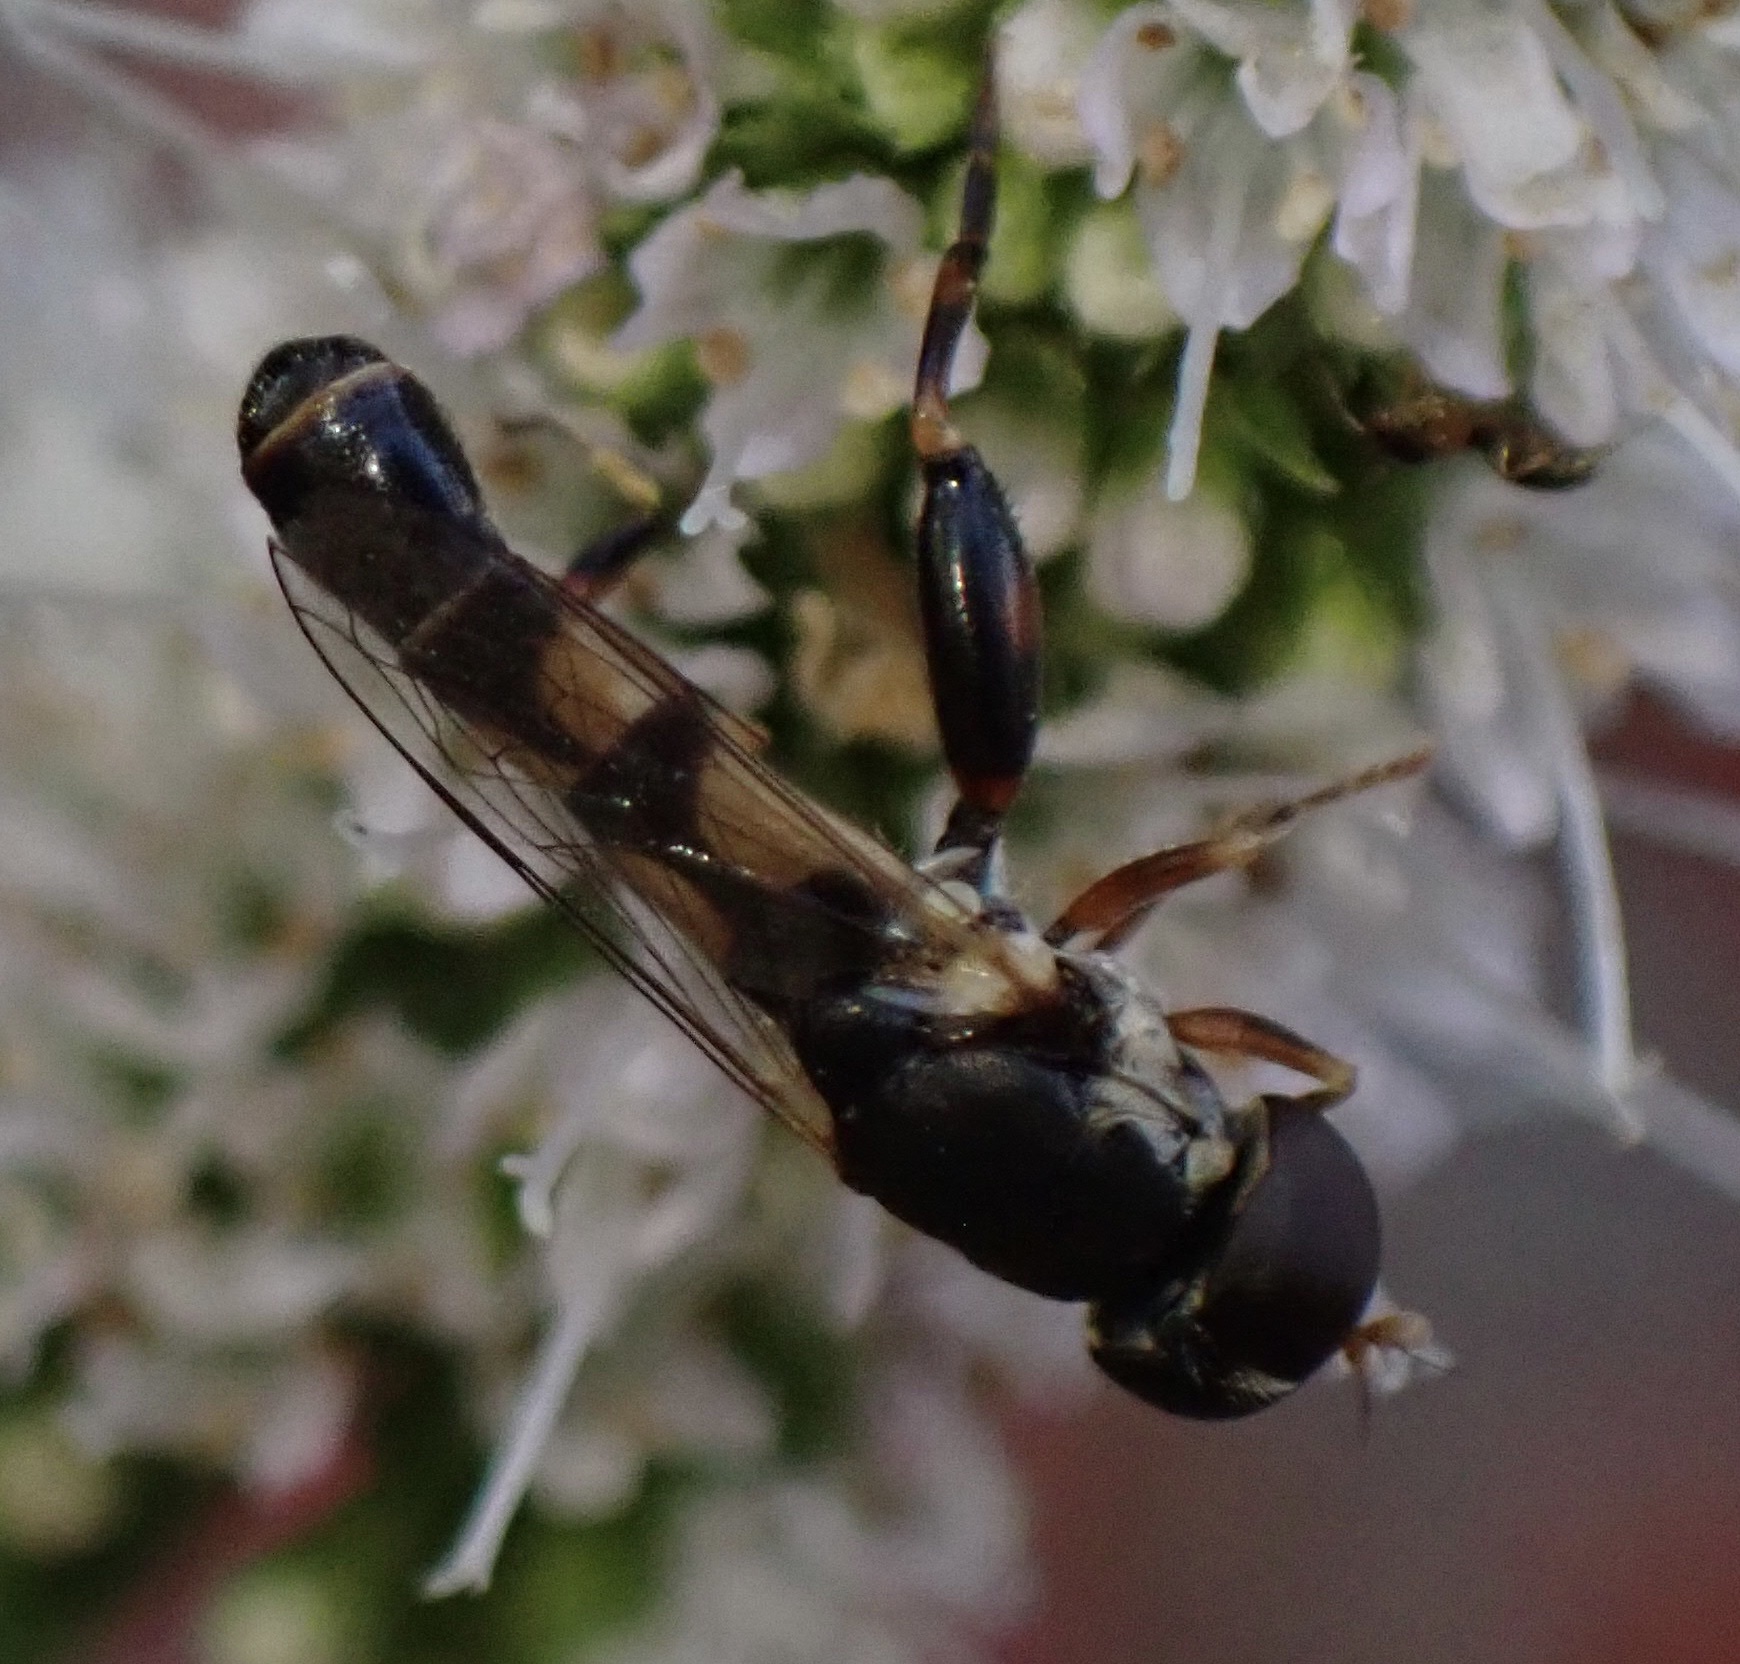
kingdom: Animalia
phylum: Arthropoda
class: Insecta
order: Diptera
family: Syrphidae
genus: Syritta
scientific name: Syritta pipiens
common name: Hover fly
